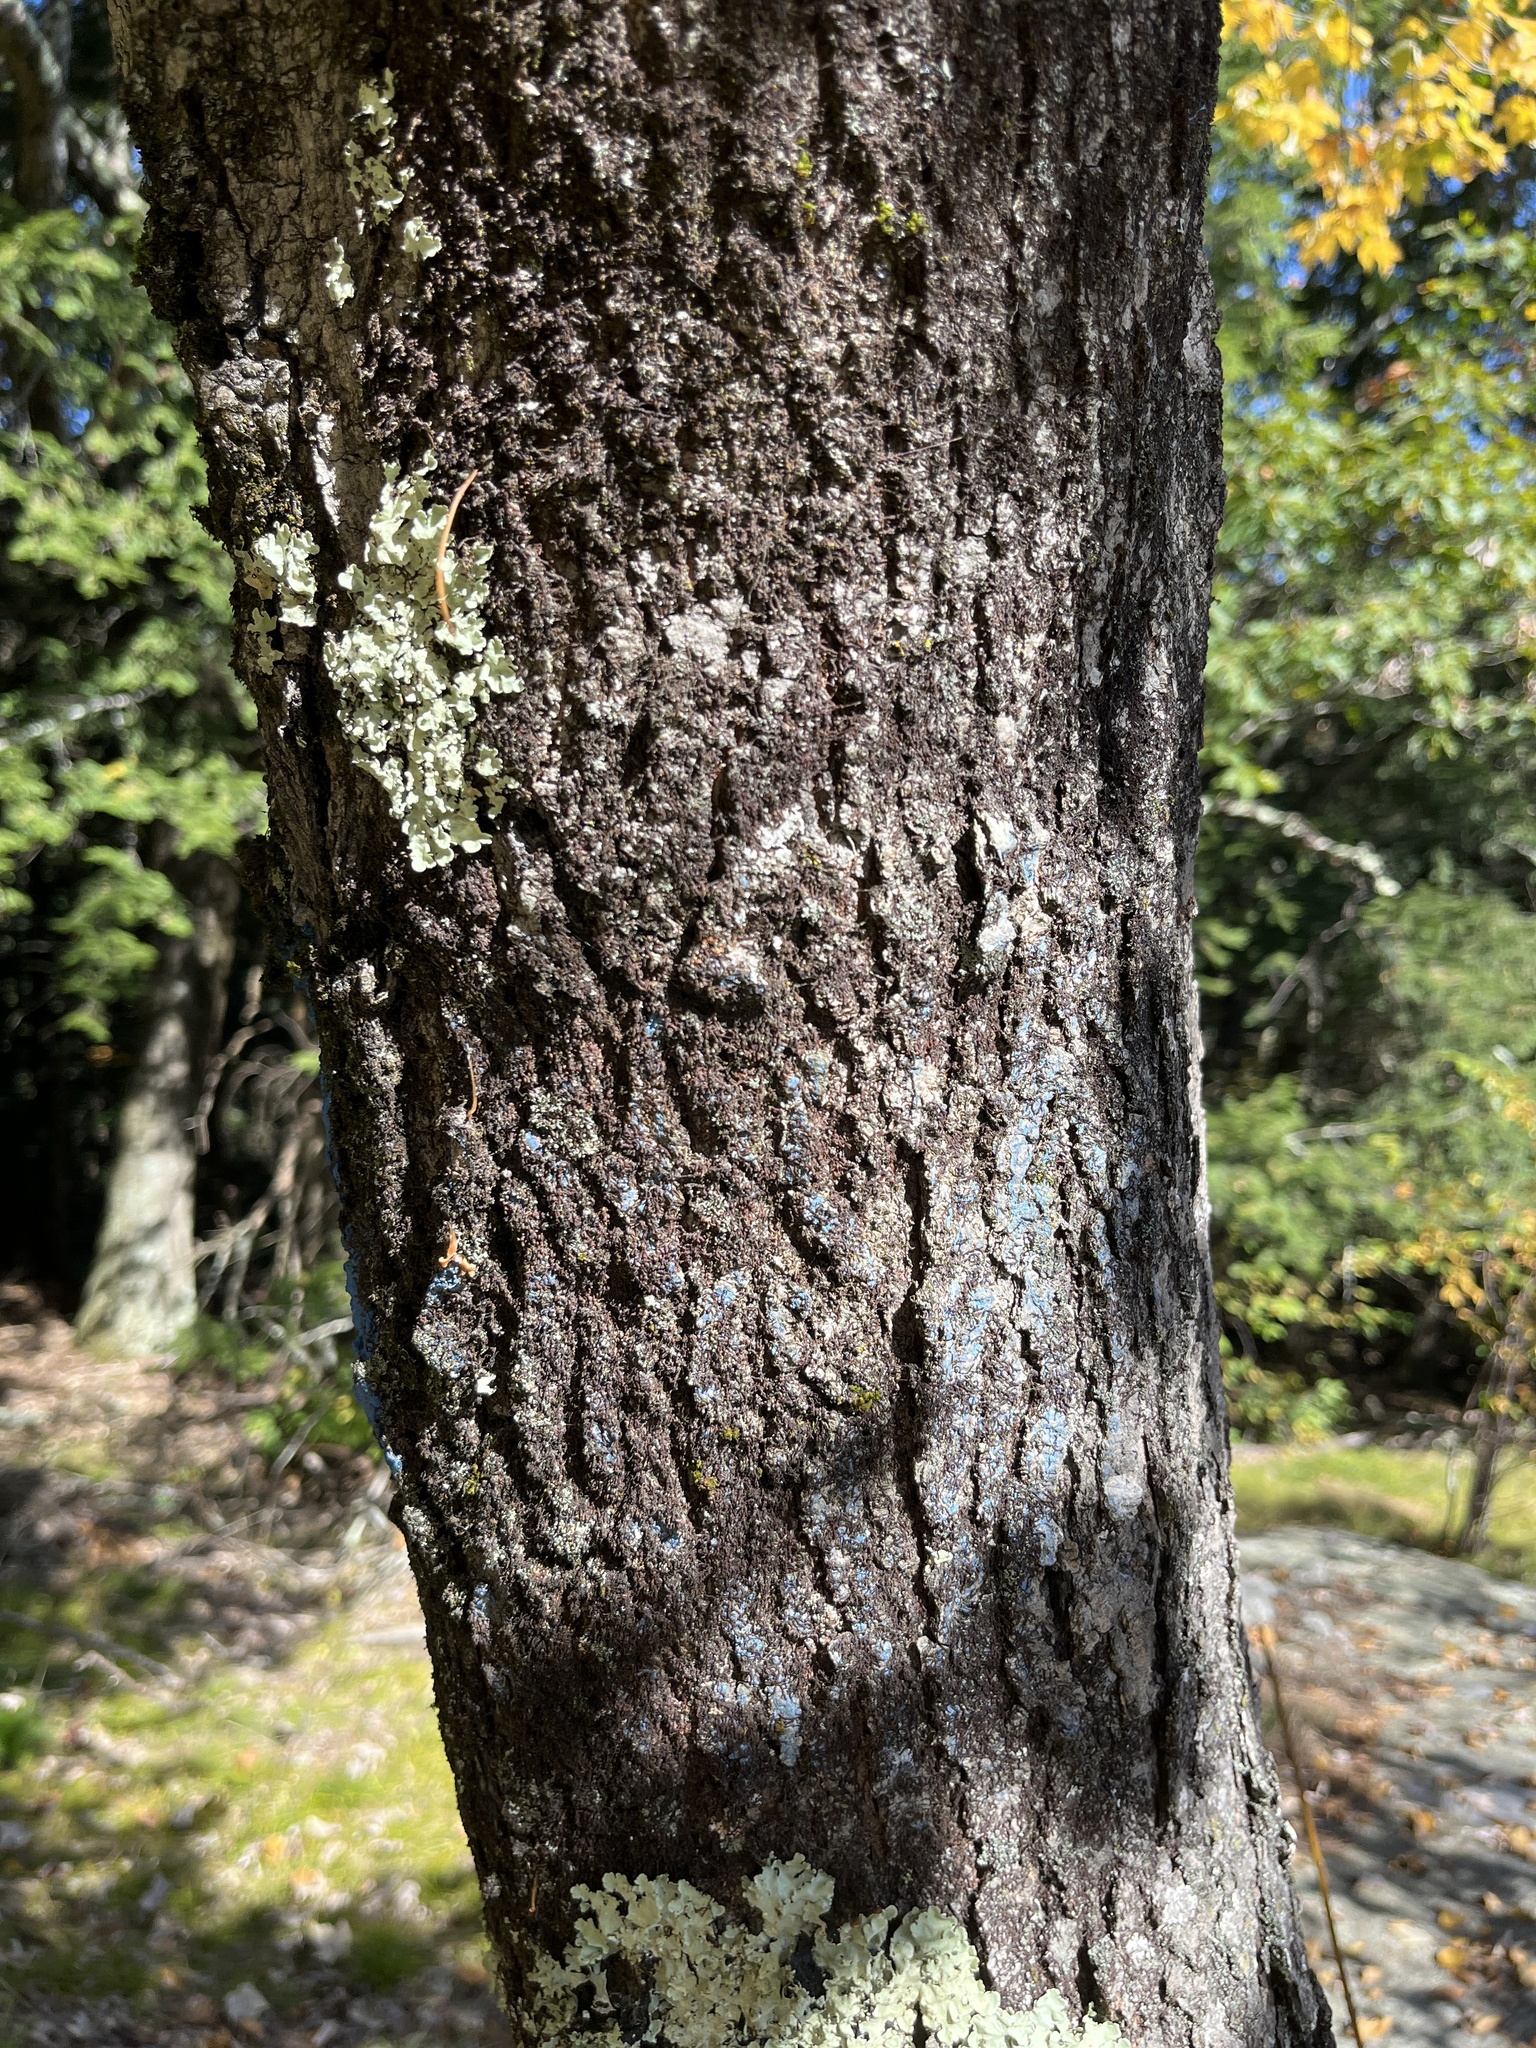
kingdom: Plantae
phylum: Tracheophyta
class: Magnoliopsida
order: Sapindales
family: Sapindaceae
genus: Acer
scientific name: Acer rubrum
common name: Red maple
